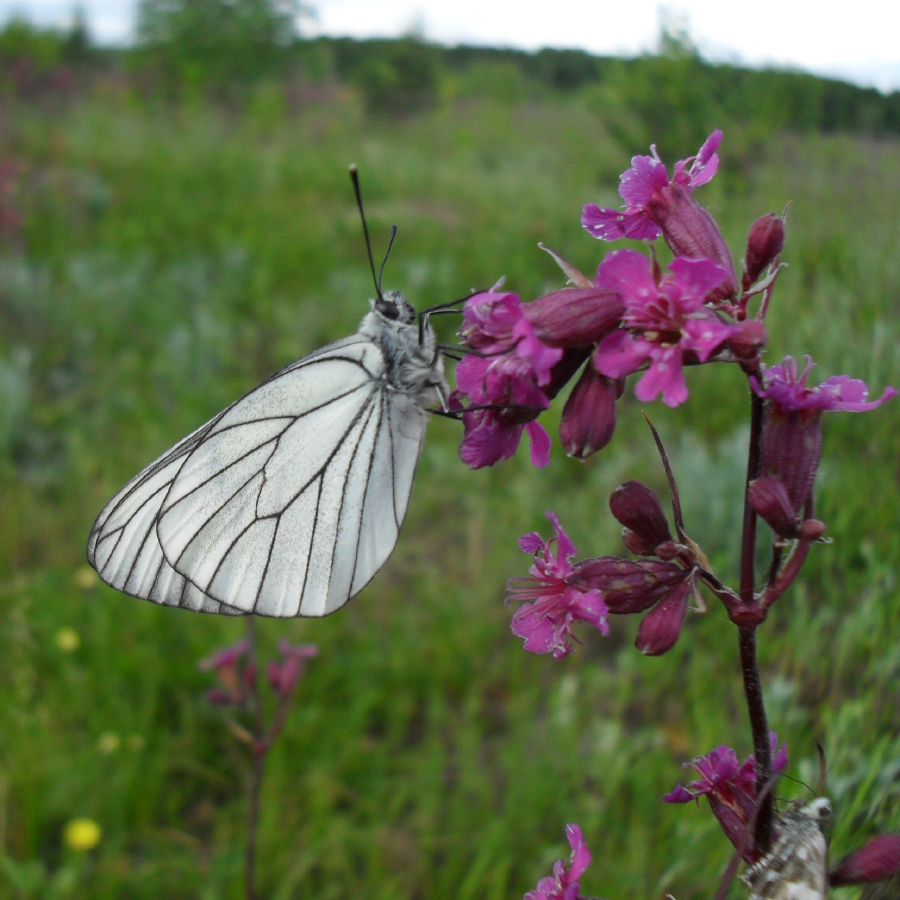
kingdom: Animalia
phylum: Arthropoda
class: Insecta
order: Lepidoptera
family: Pieridae
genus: Aporia
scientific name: Aporia crataegi
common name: Black-veined white
